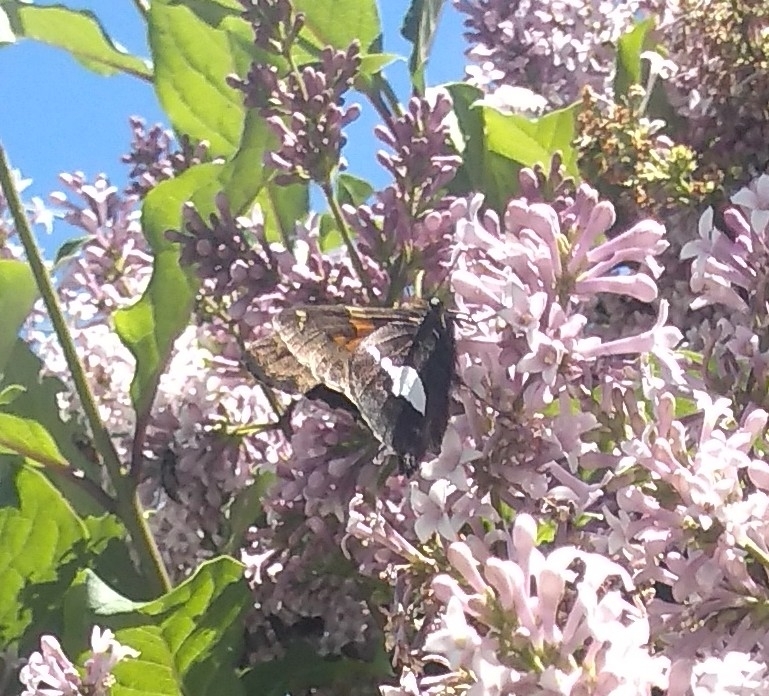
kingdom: Animalia
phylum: Arthropoda
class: Insecta
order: Lepidoptera
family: Hesperiidae
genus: Epargyreus
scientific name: Epargyreus clarus
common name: Silver-spotted skipper
